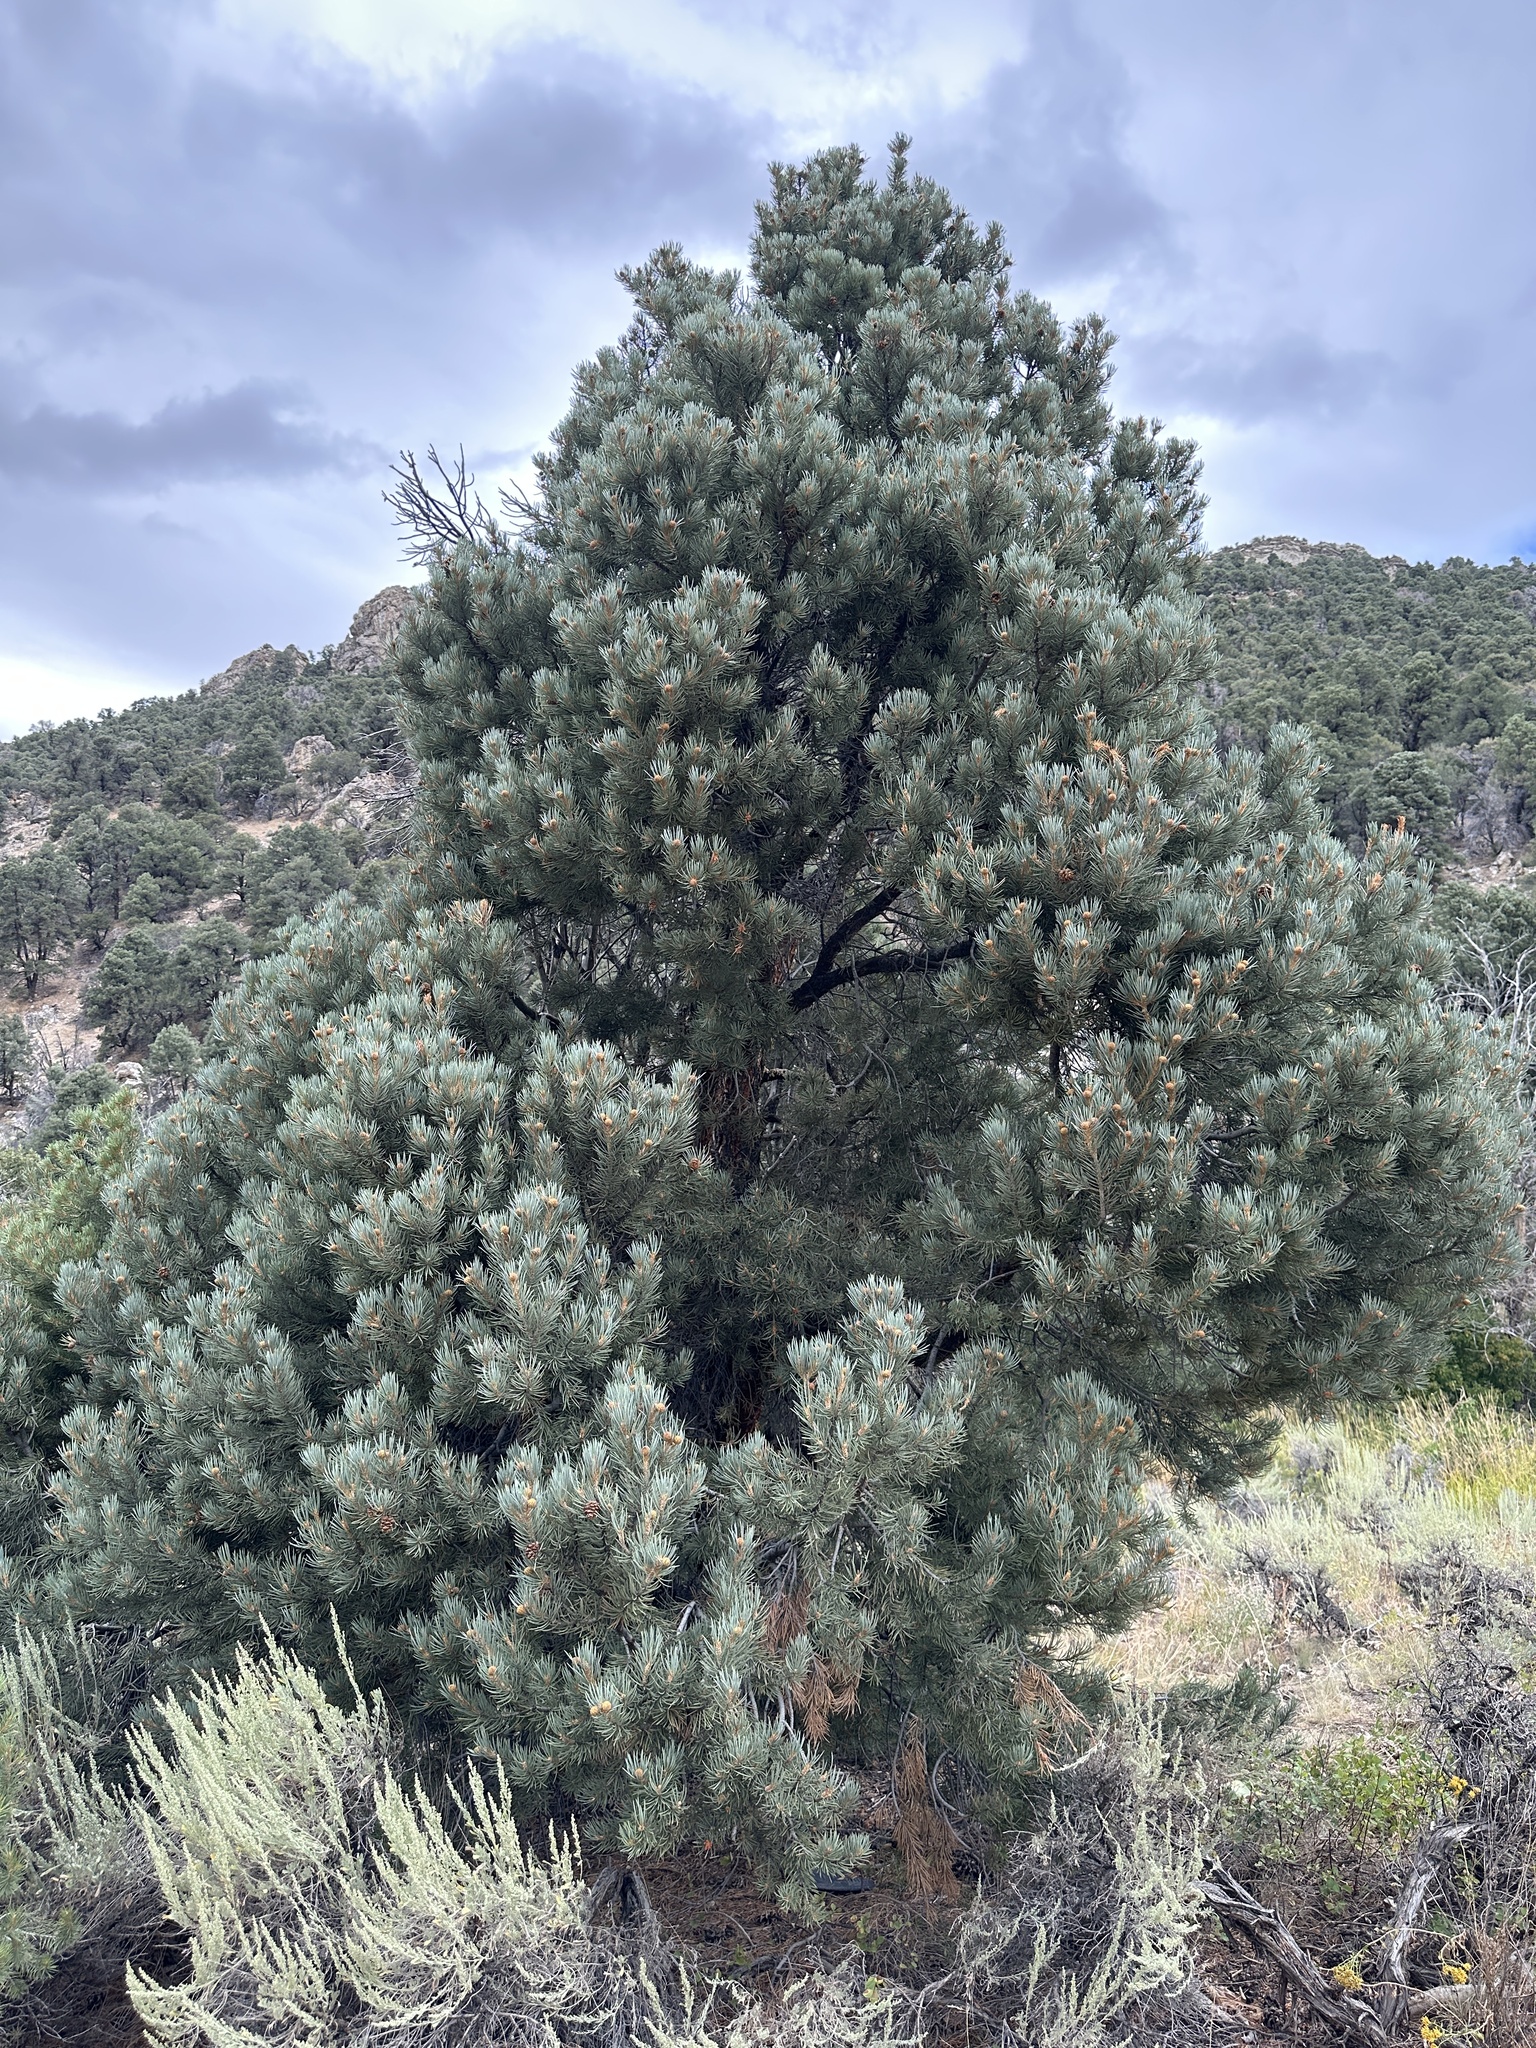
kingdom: Plantae
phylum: Tracheophyta
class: Pinopsida
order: Pinales
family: Pinaceae
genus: Pinus
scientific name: Pinus monophylla
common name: One-leaved nut pine
